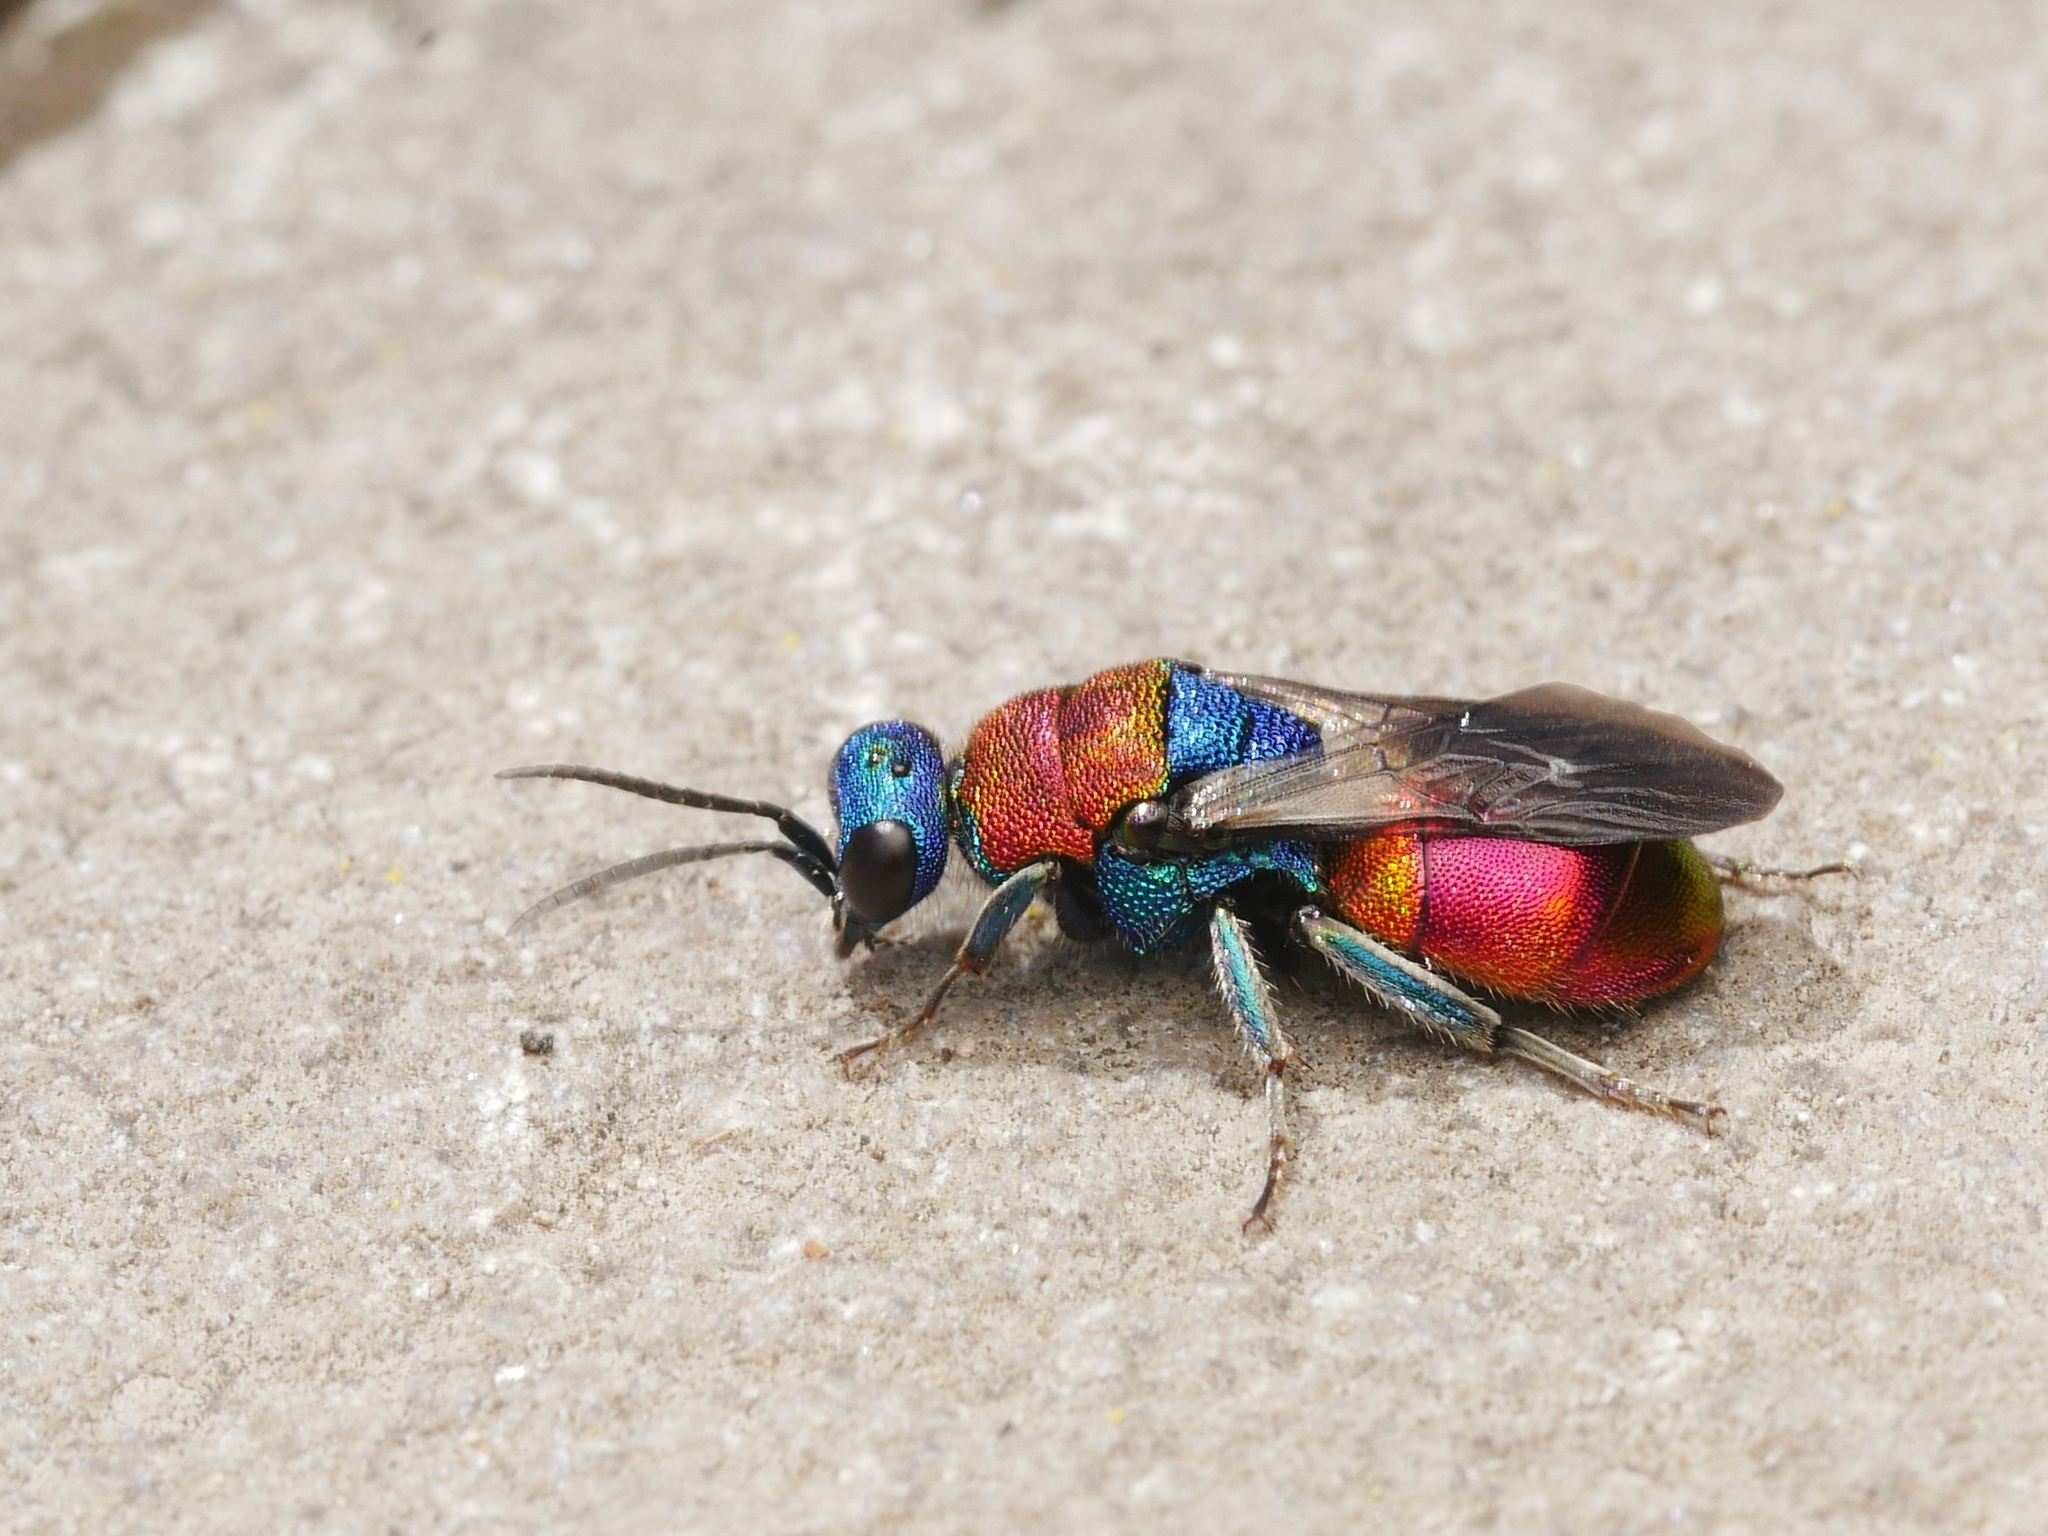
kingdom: Animalia
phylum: Arthropoda
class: Insecta
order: Hymenoptera
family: Chrysididae
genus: Hedychrum
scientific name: Hedychrum
